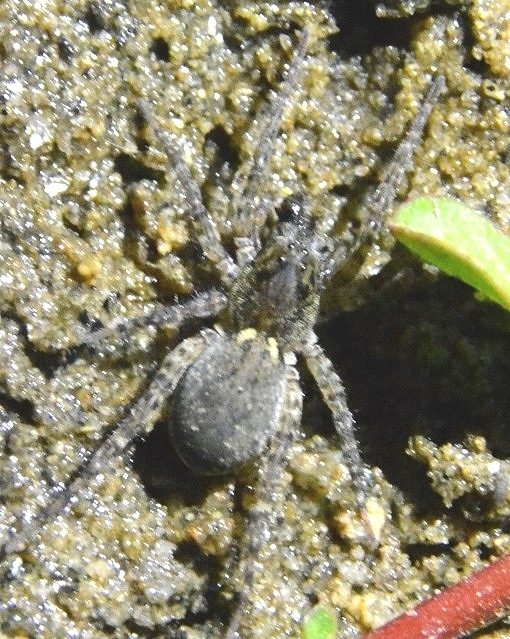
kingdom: Animalia
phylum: Arthropoda
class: Arachnida
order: Araneae
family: Lycosidae
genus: Paratrochosina
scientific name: Paratrochosina amica
